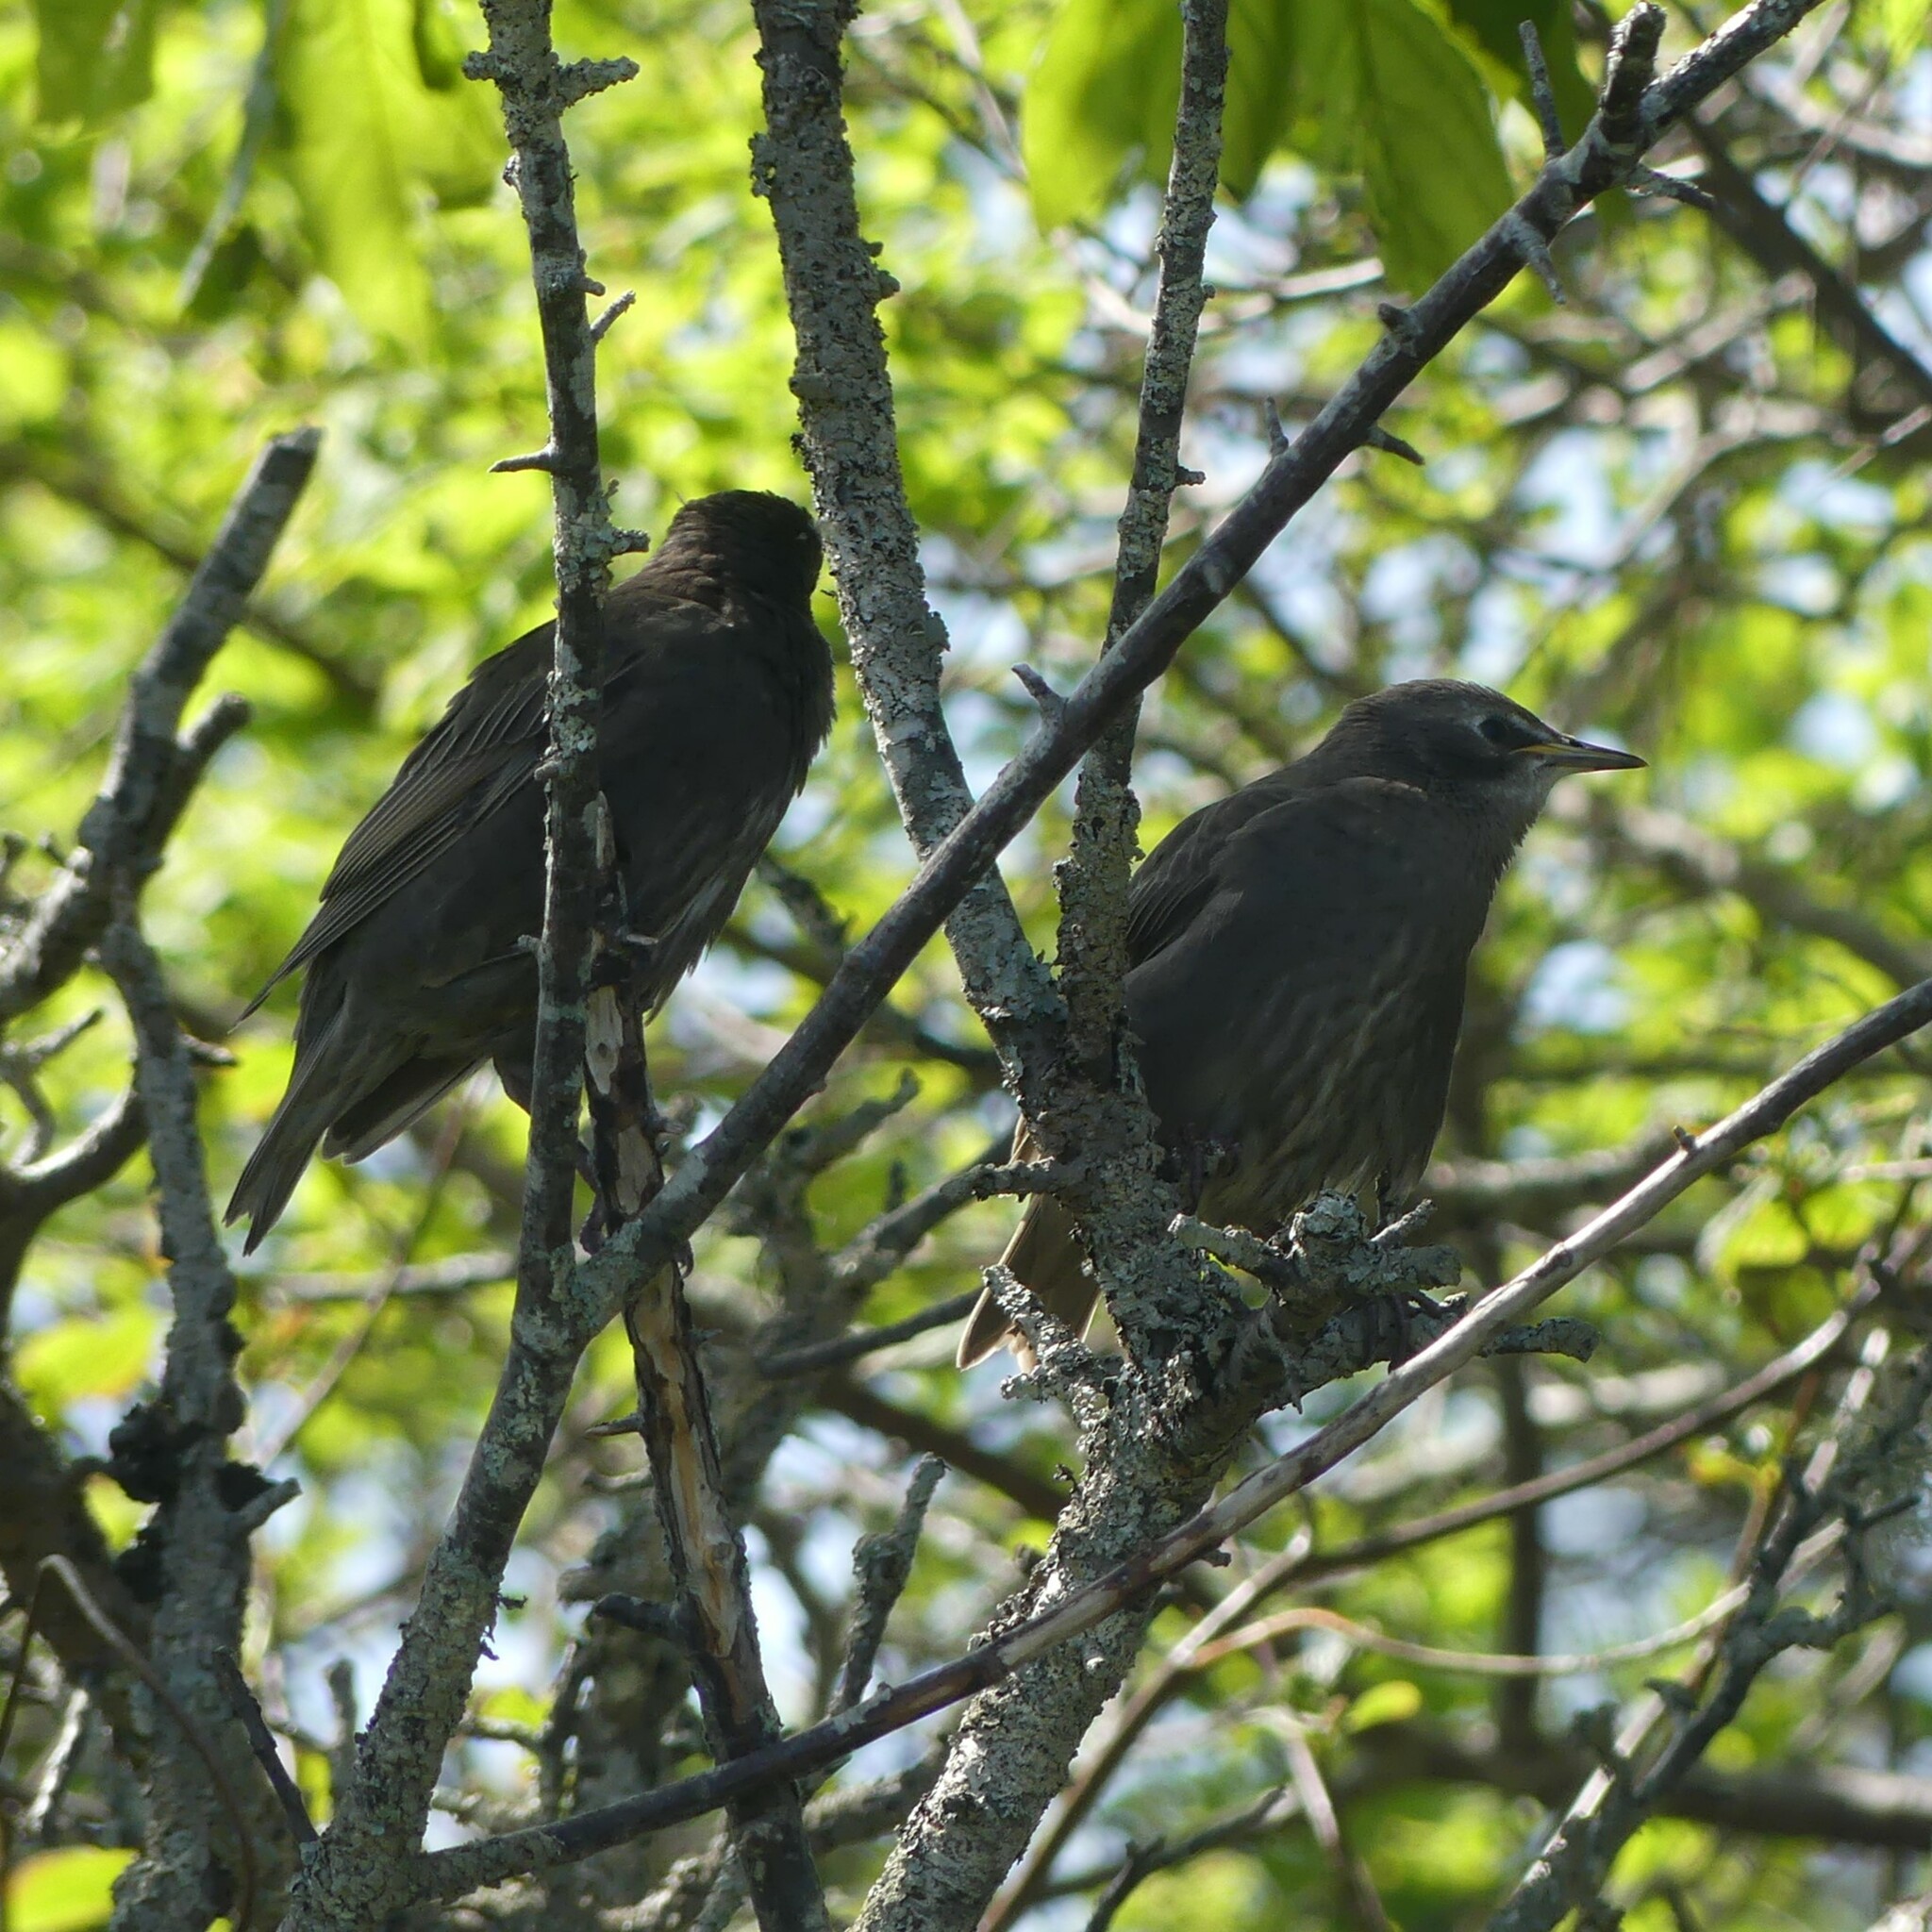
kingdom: Animalia
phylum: Chordata
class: Aves
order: Passeriformes
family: Sturnidae
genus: Sturnus
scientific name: Sturnus vulgaris
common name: Common starling
